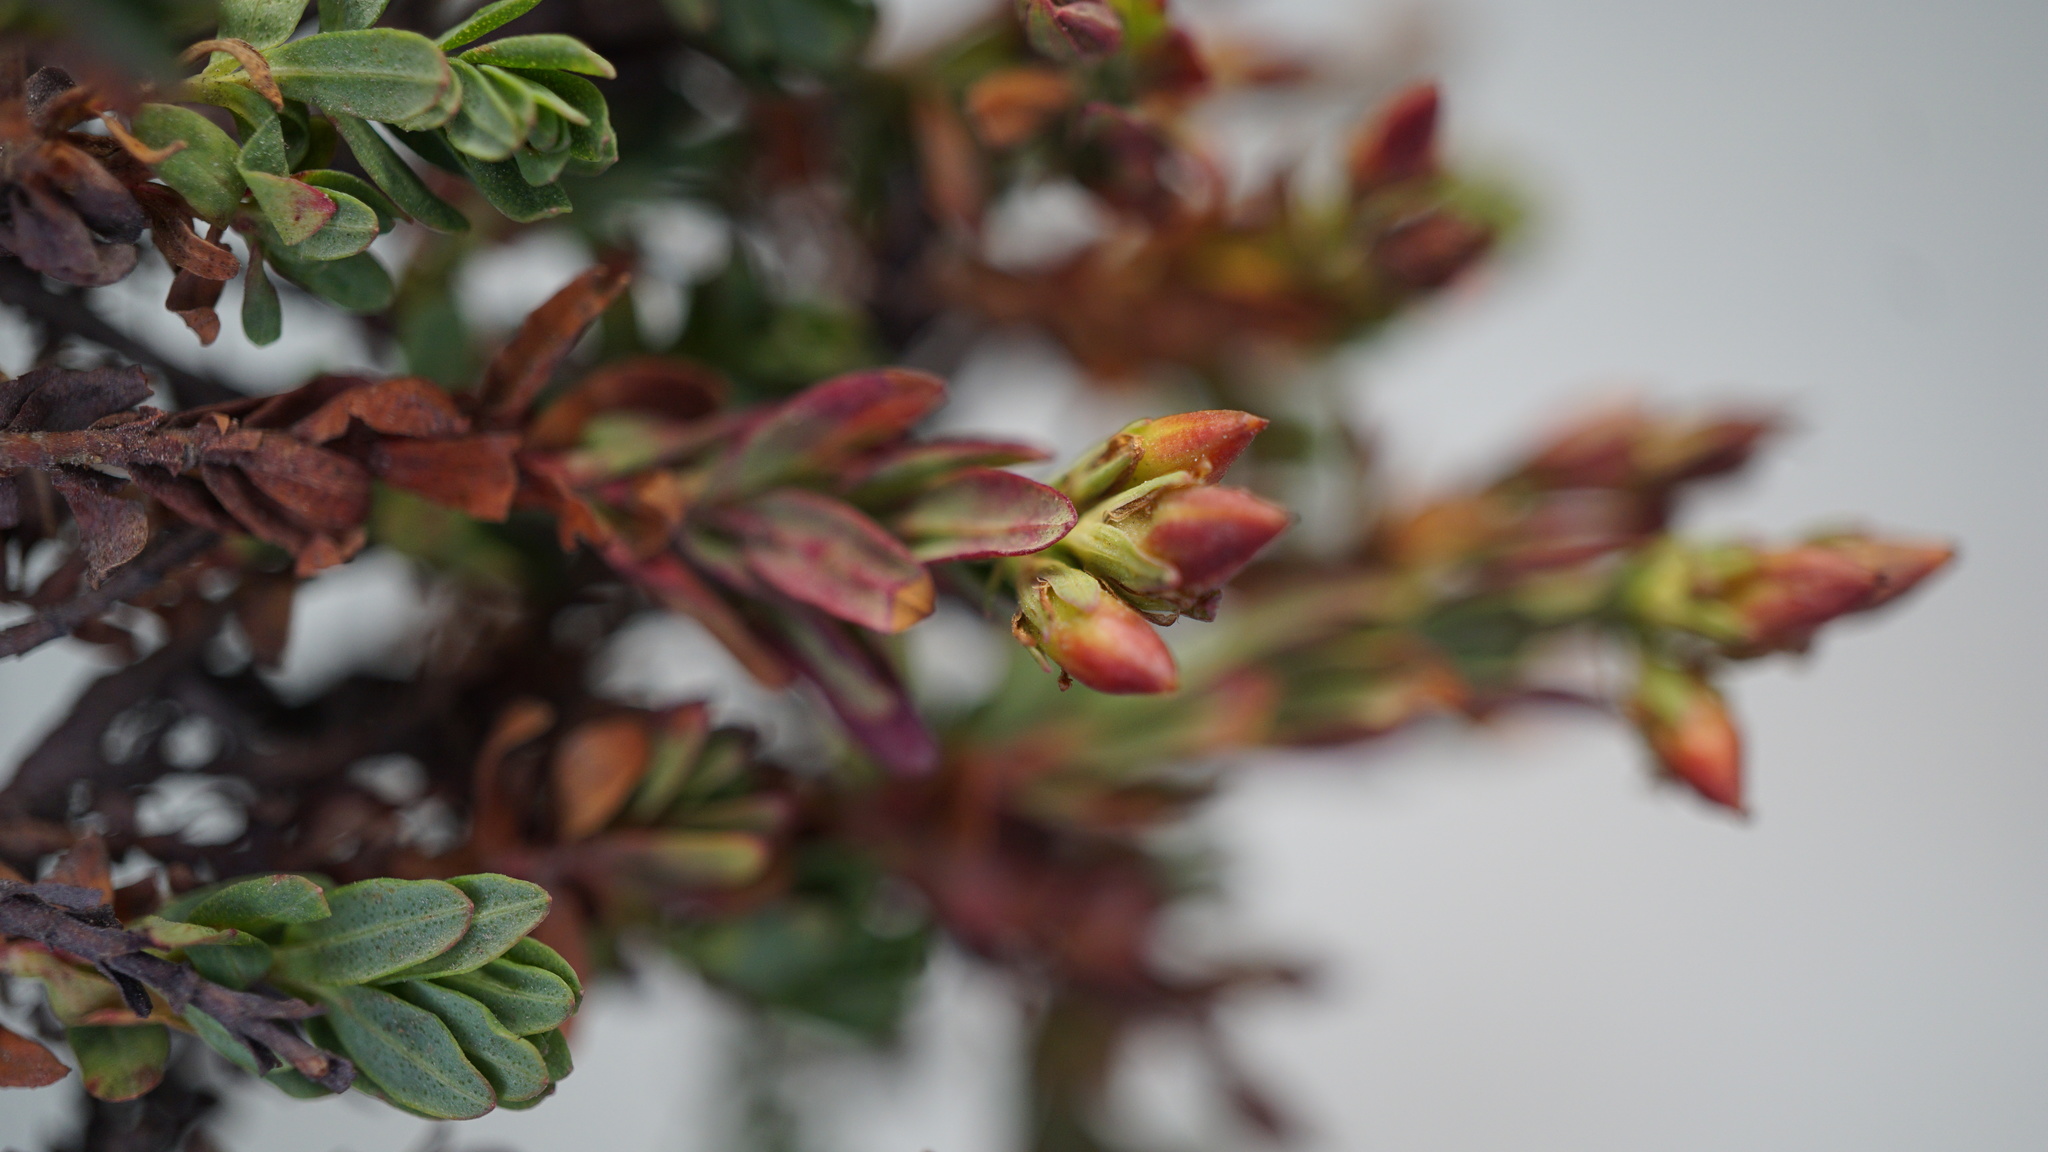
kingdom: Plantae
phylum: Tracheophyta
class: Magnoliopsida
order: Malpighiales
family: Hypericaceae
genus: Hypericum
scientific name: Hypericum brevistylum
